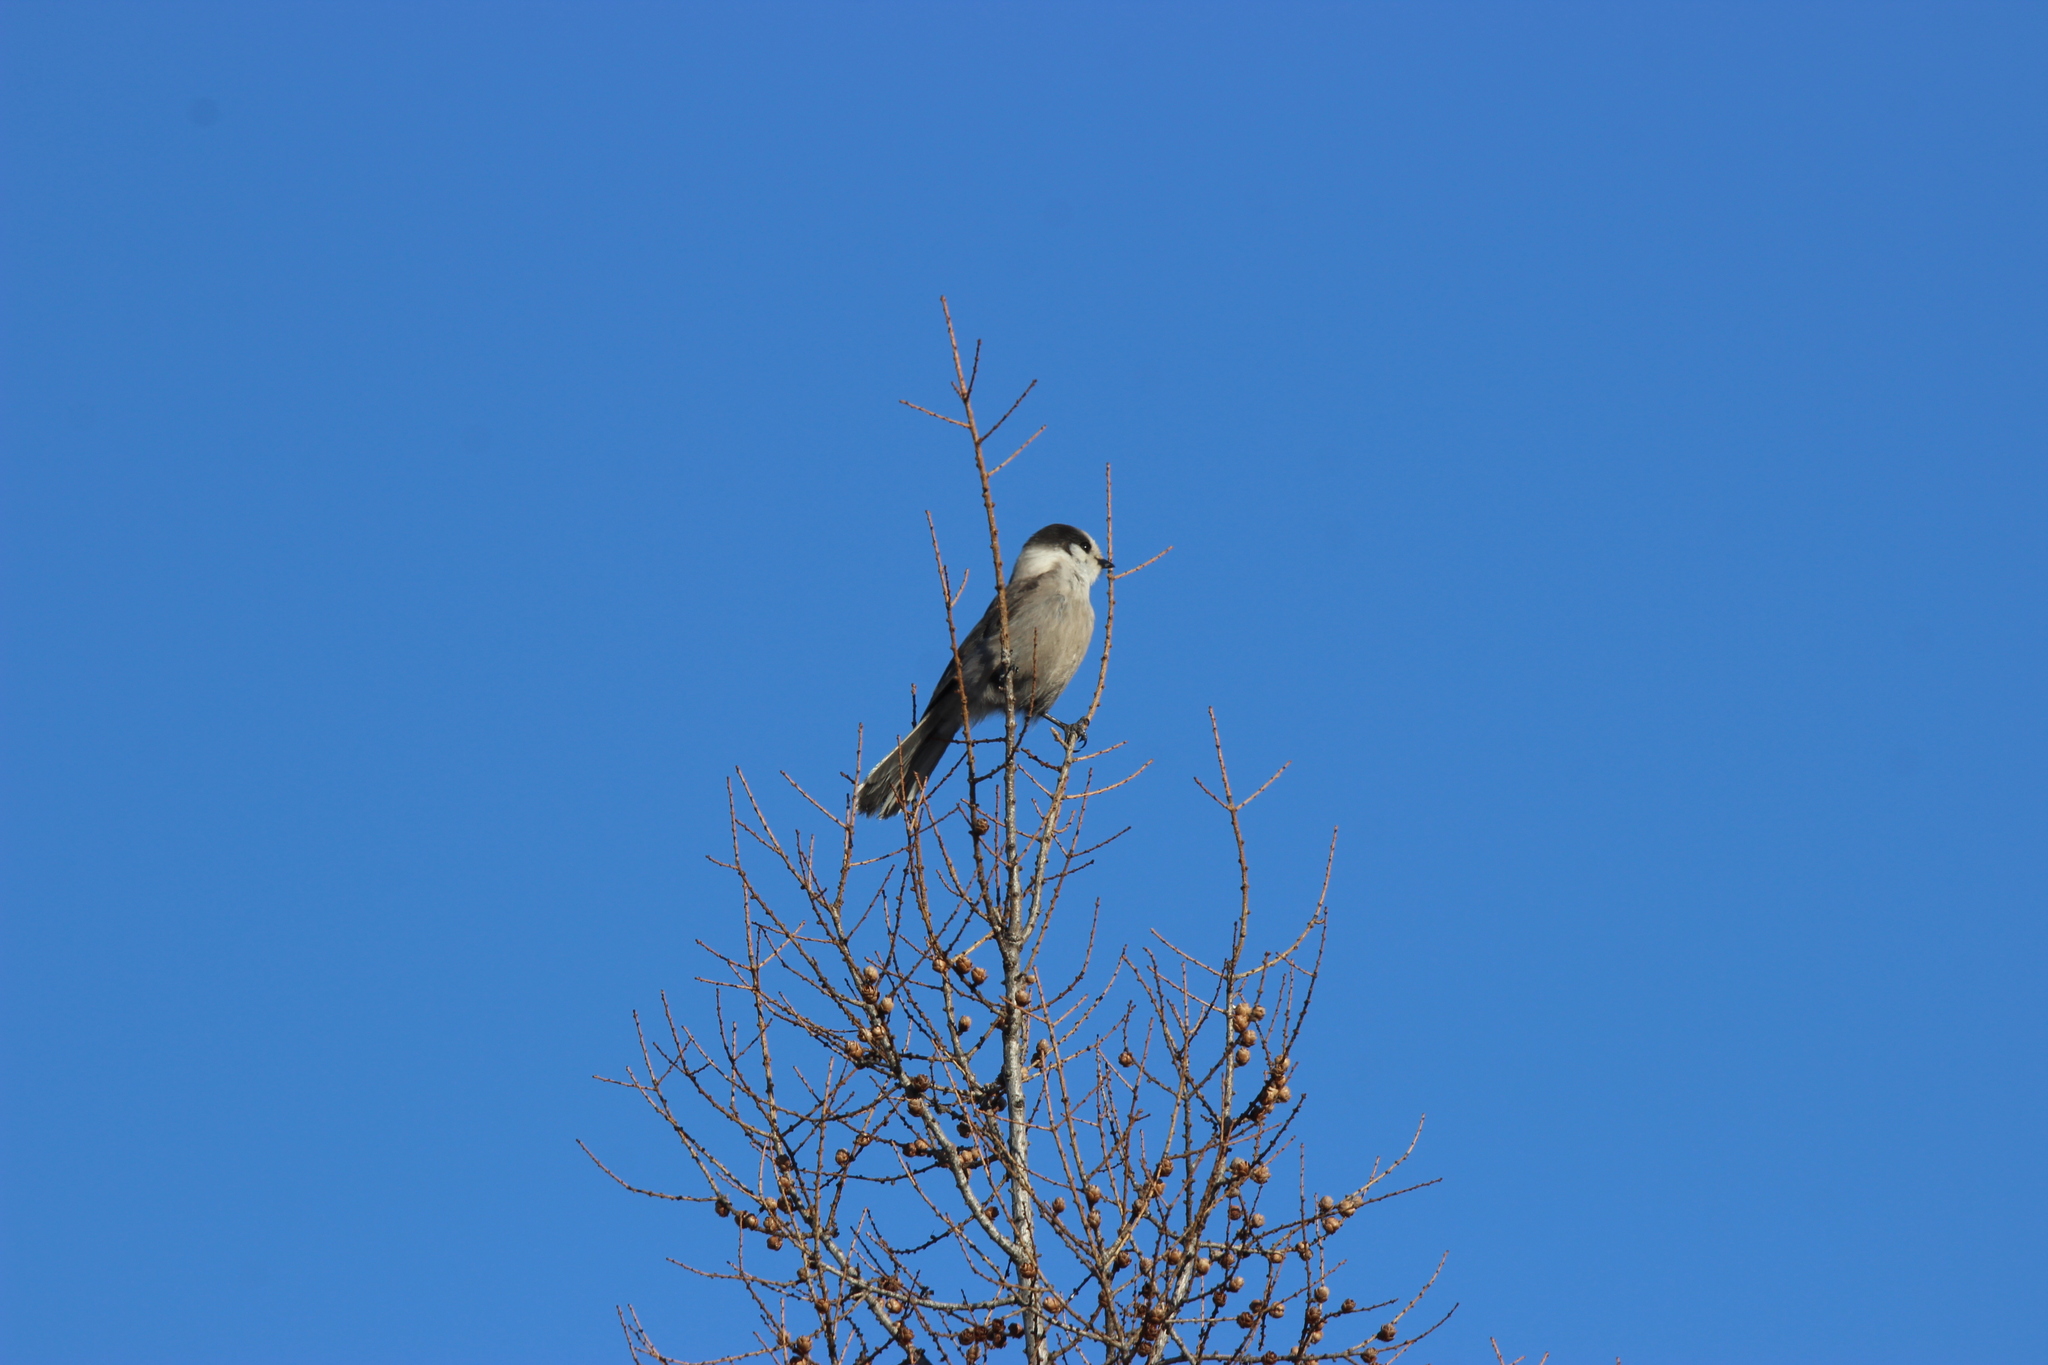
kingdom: Animalia
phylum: Chordata
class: Aves
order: Passeriformes
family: Corvidae
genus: Perisoreus
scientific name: Perisoreus canadensis
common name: Gray jay
